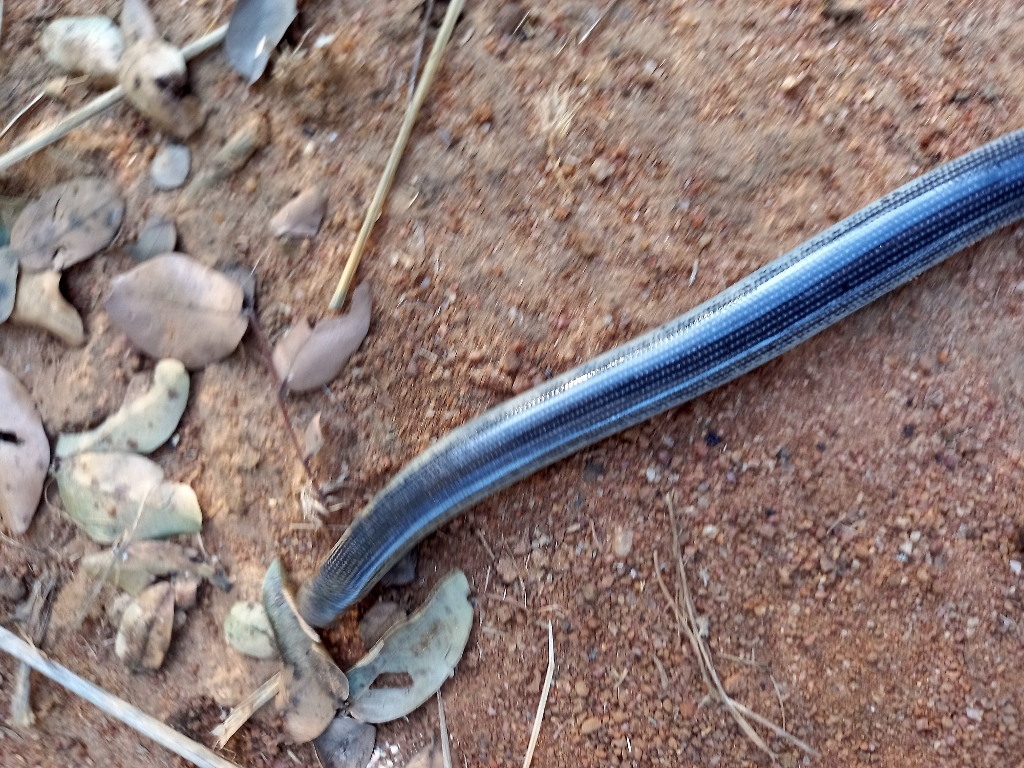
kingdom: Animalia
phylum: Chordata
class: Squamata
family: Typhlopidae
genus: Afrotyphlops
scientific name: Afrotyphlops mucruso
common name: Zambezi blind snake
